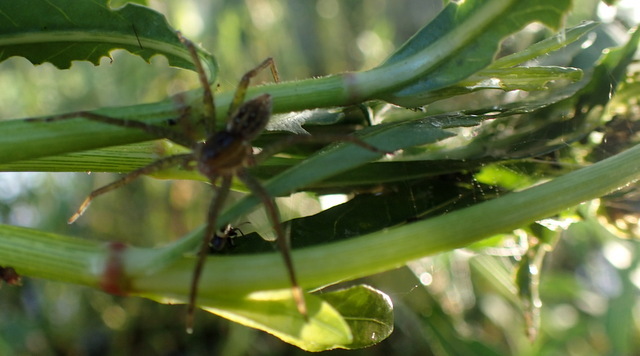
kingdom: Animalia
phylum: Arthropoda
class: Arachnida
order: Araneae
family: Pisauridae
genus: Dolomedes
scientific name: Dolomedes triton
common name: Six-spotted fishing spider
